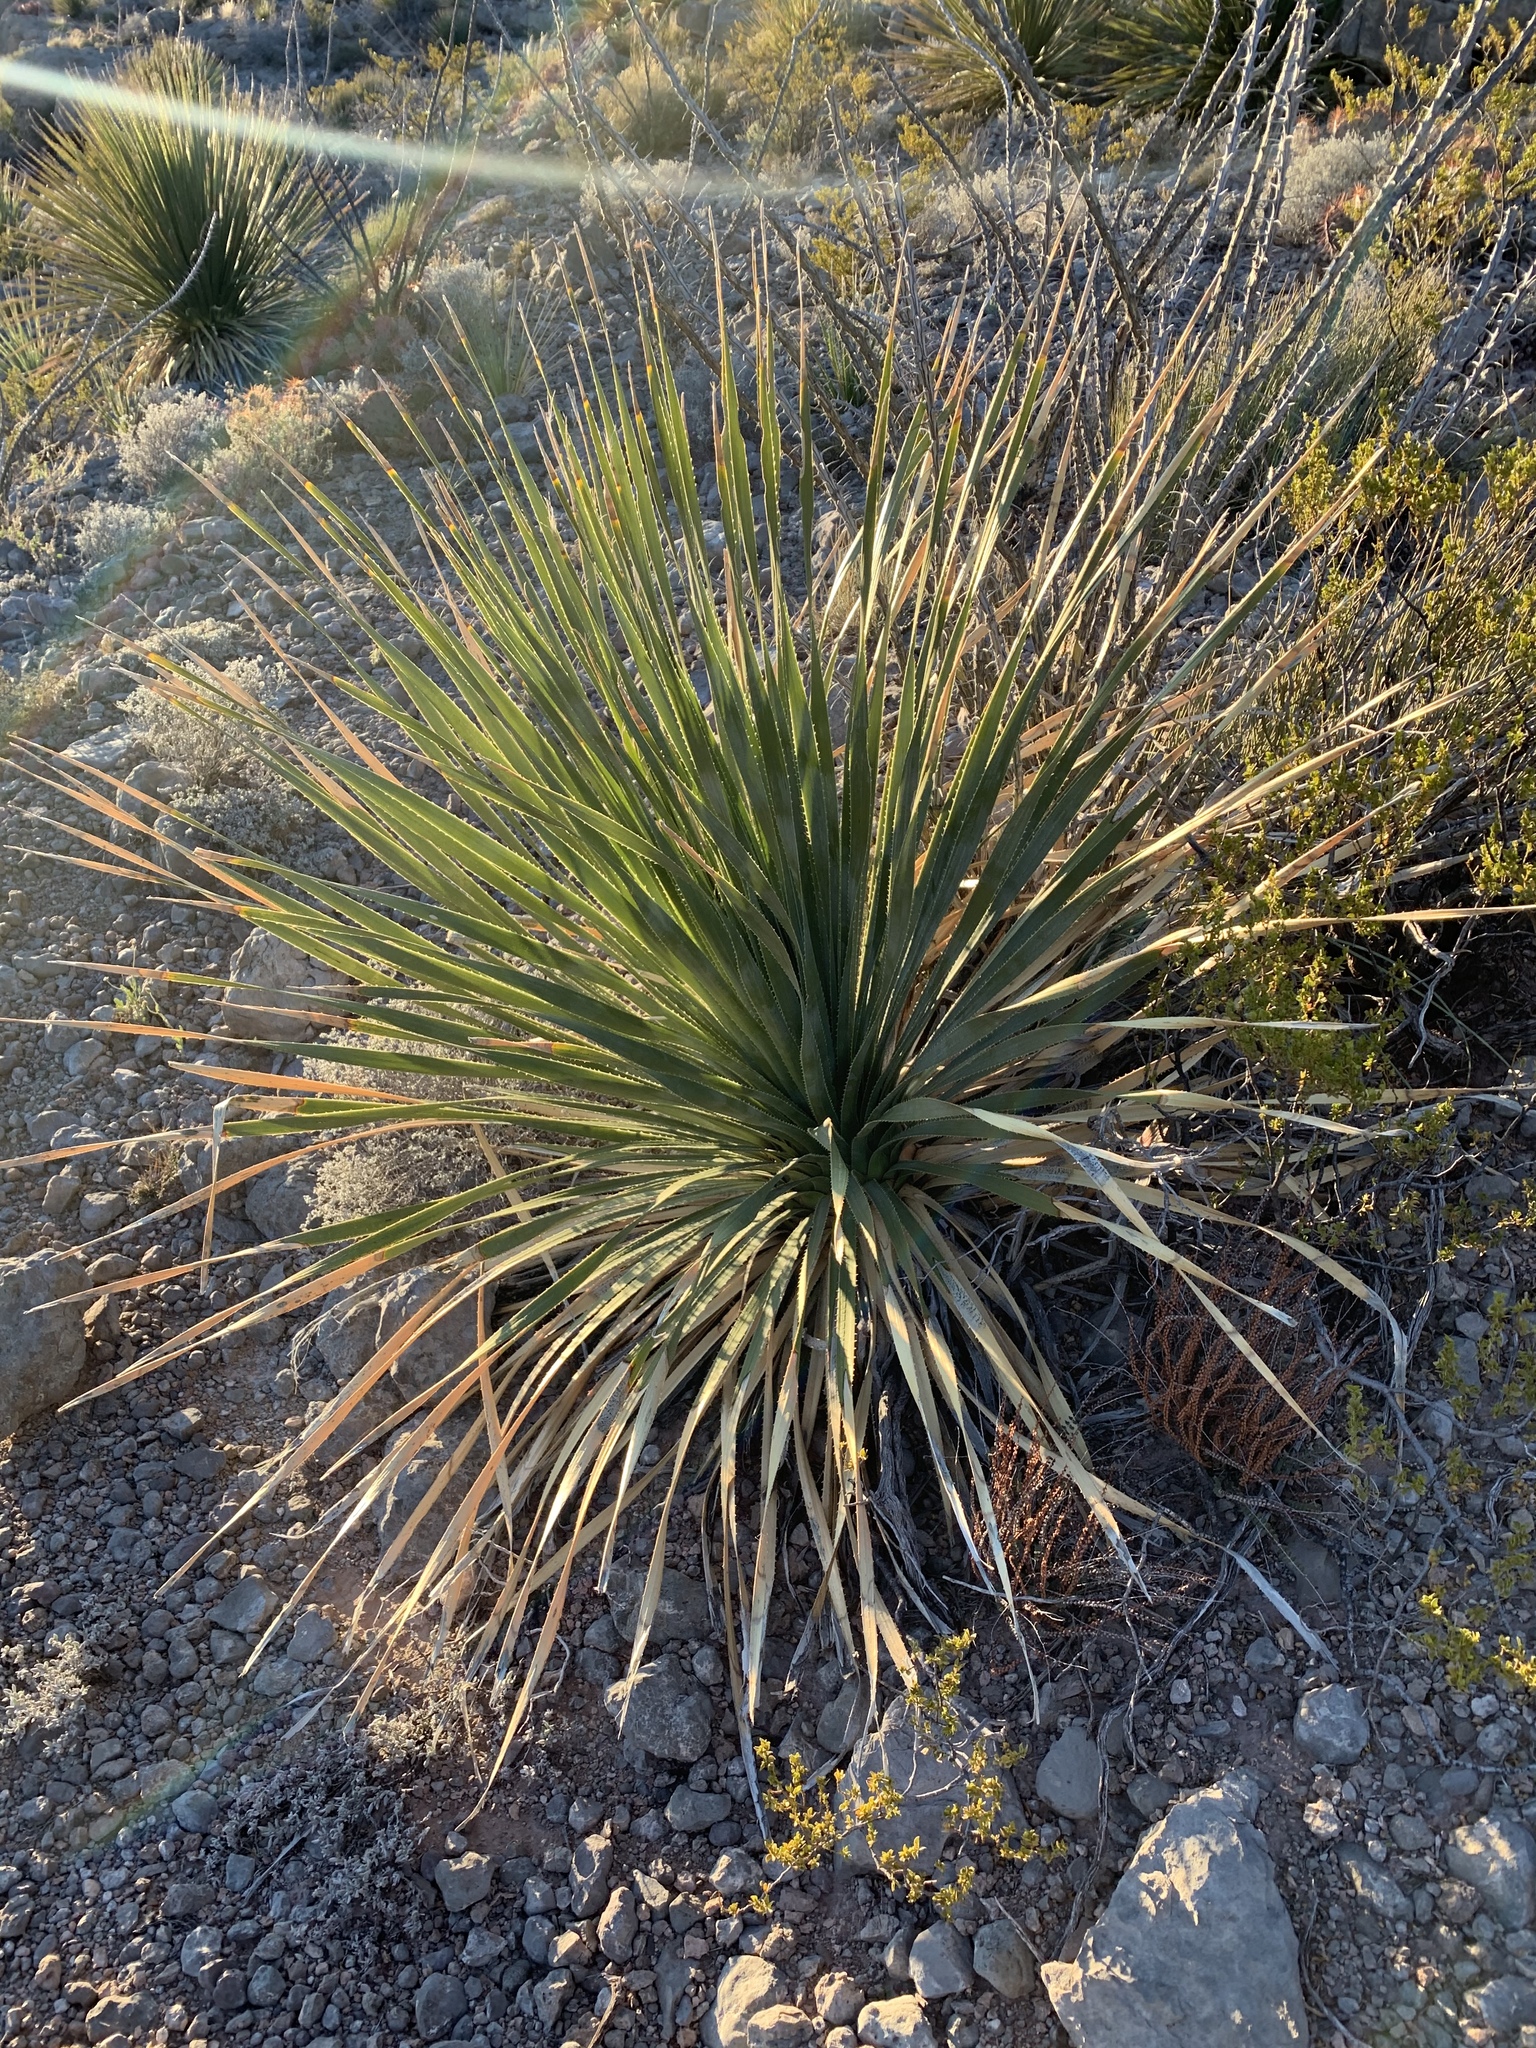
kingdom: Plantae
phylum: Tracheophyta
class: Liliopsida
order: Asparagales
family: Asparagaceae
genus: Dasylirion
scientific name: Dasylirion wheeleri
